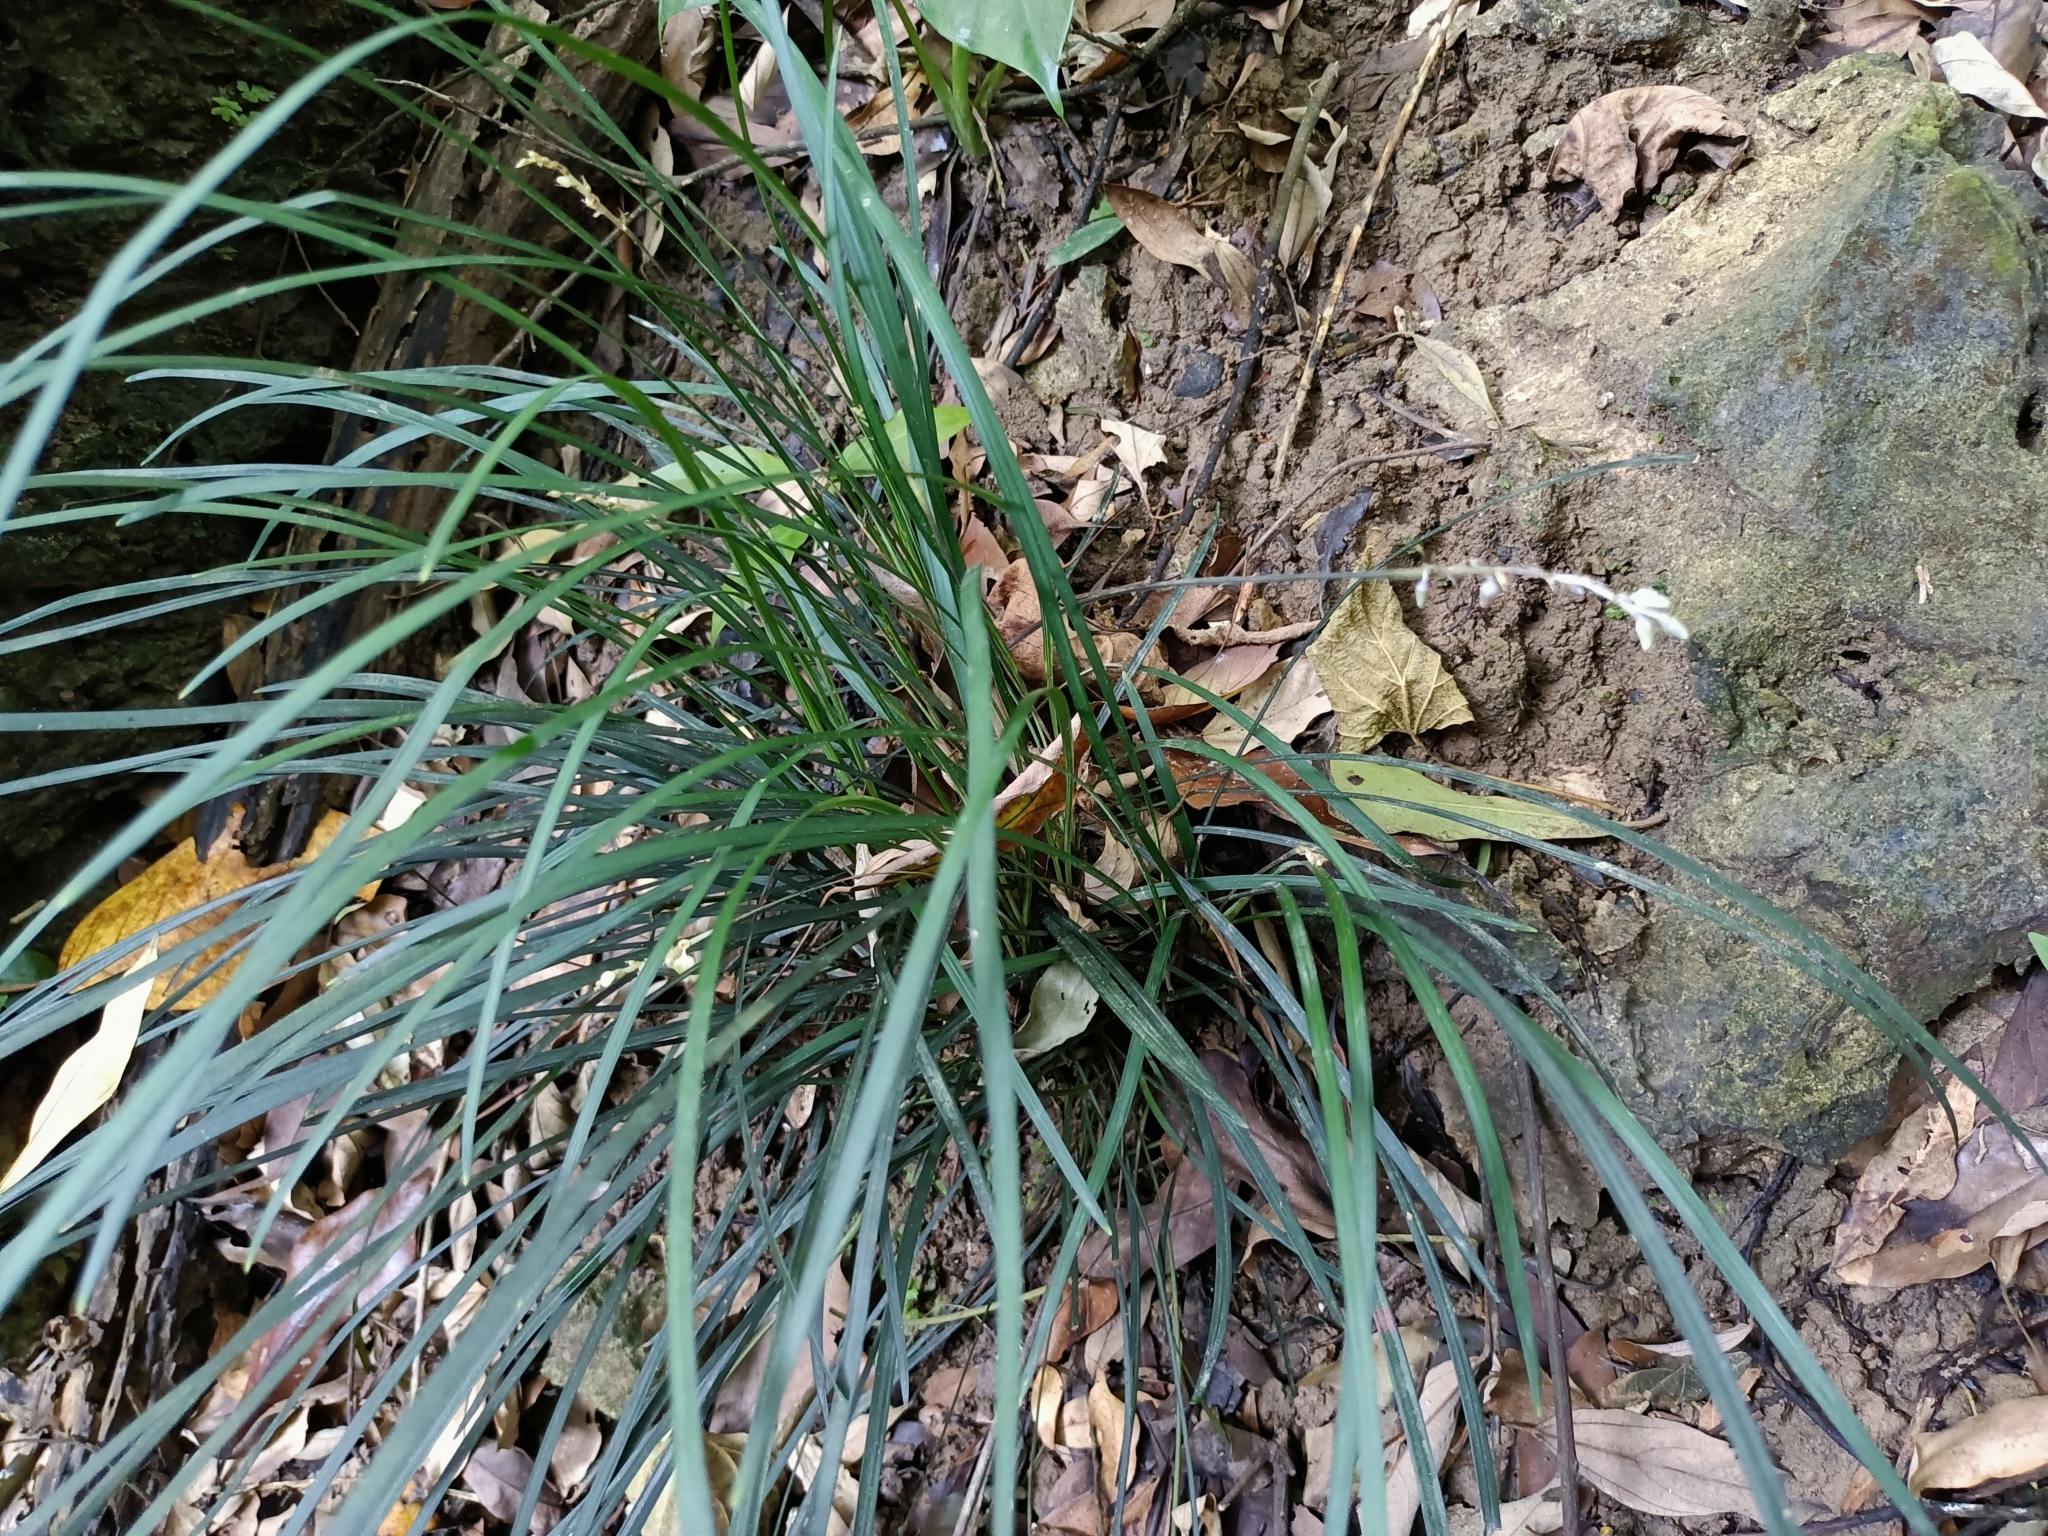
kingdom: Plantae
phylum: Tracheophyta
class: Liliopsida
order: Asparagales
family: Asparagaceae
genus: Ophiopogon
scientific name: Ophiopogon intermedius
